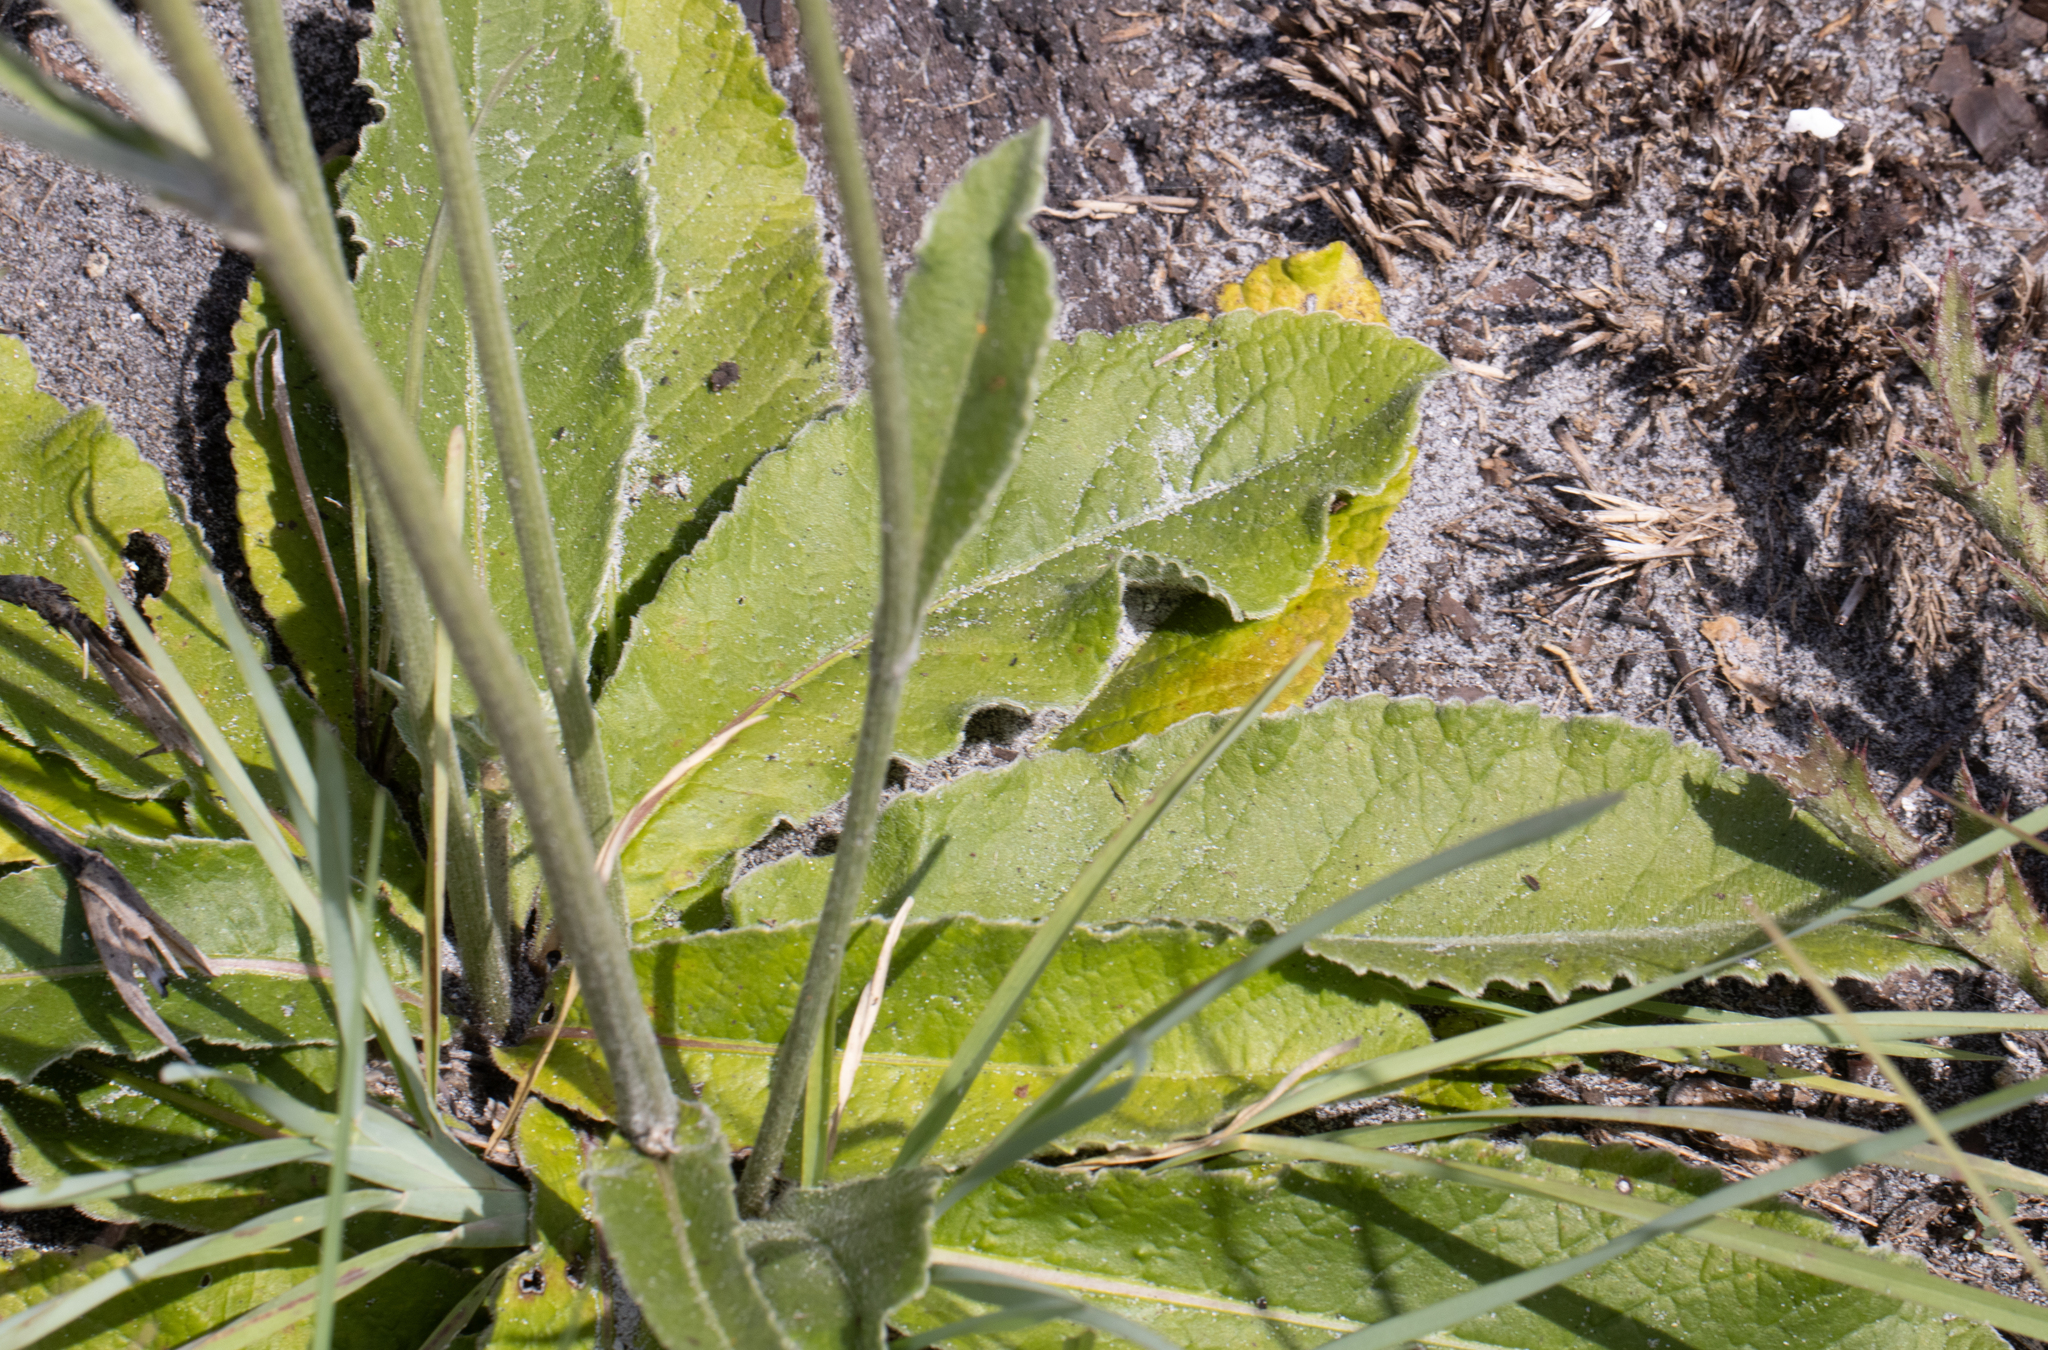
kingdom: Plantae
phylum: Tracheophyta
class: Magnoliopsida
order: Asterales
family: Asteraceae
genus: Elephantopus
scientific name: Elephantopus elatus
